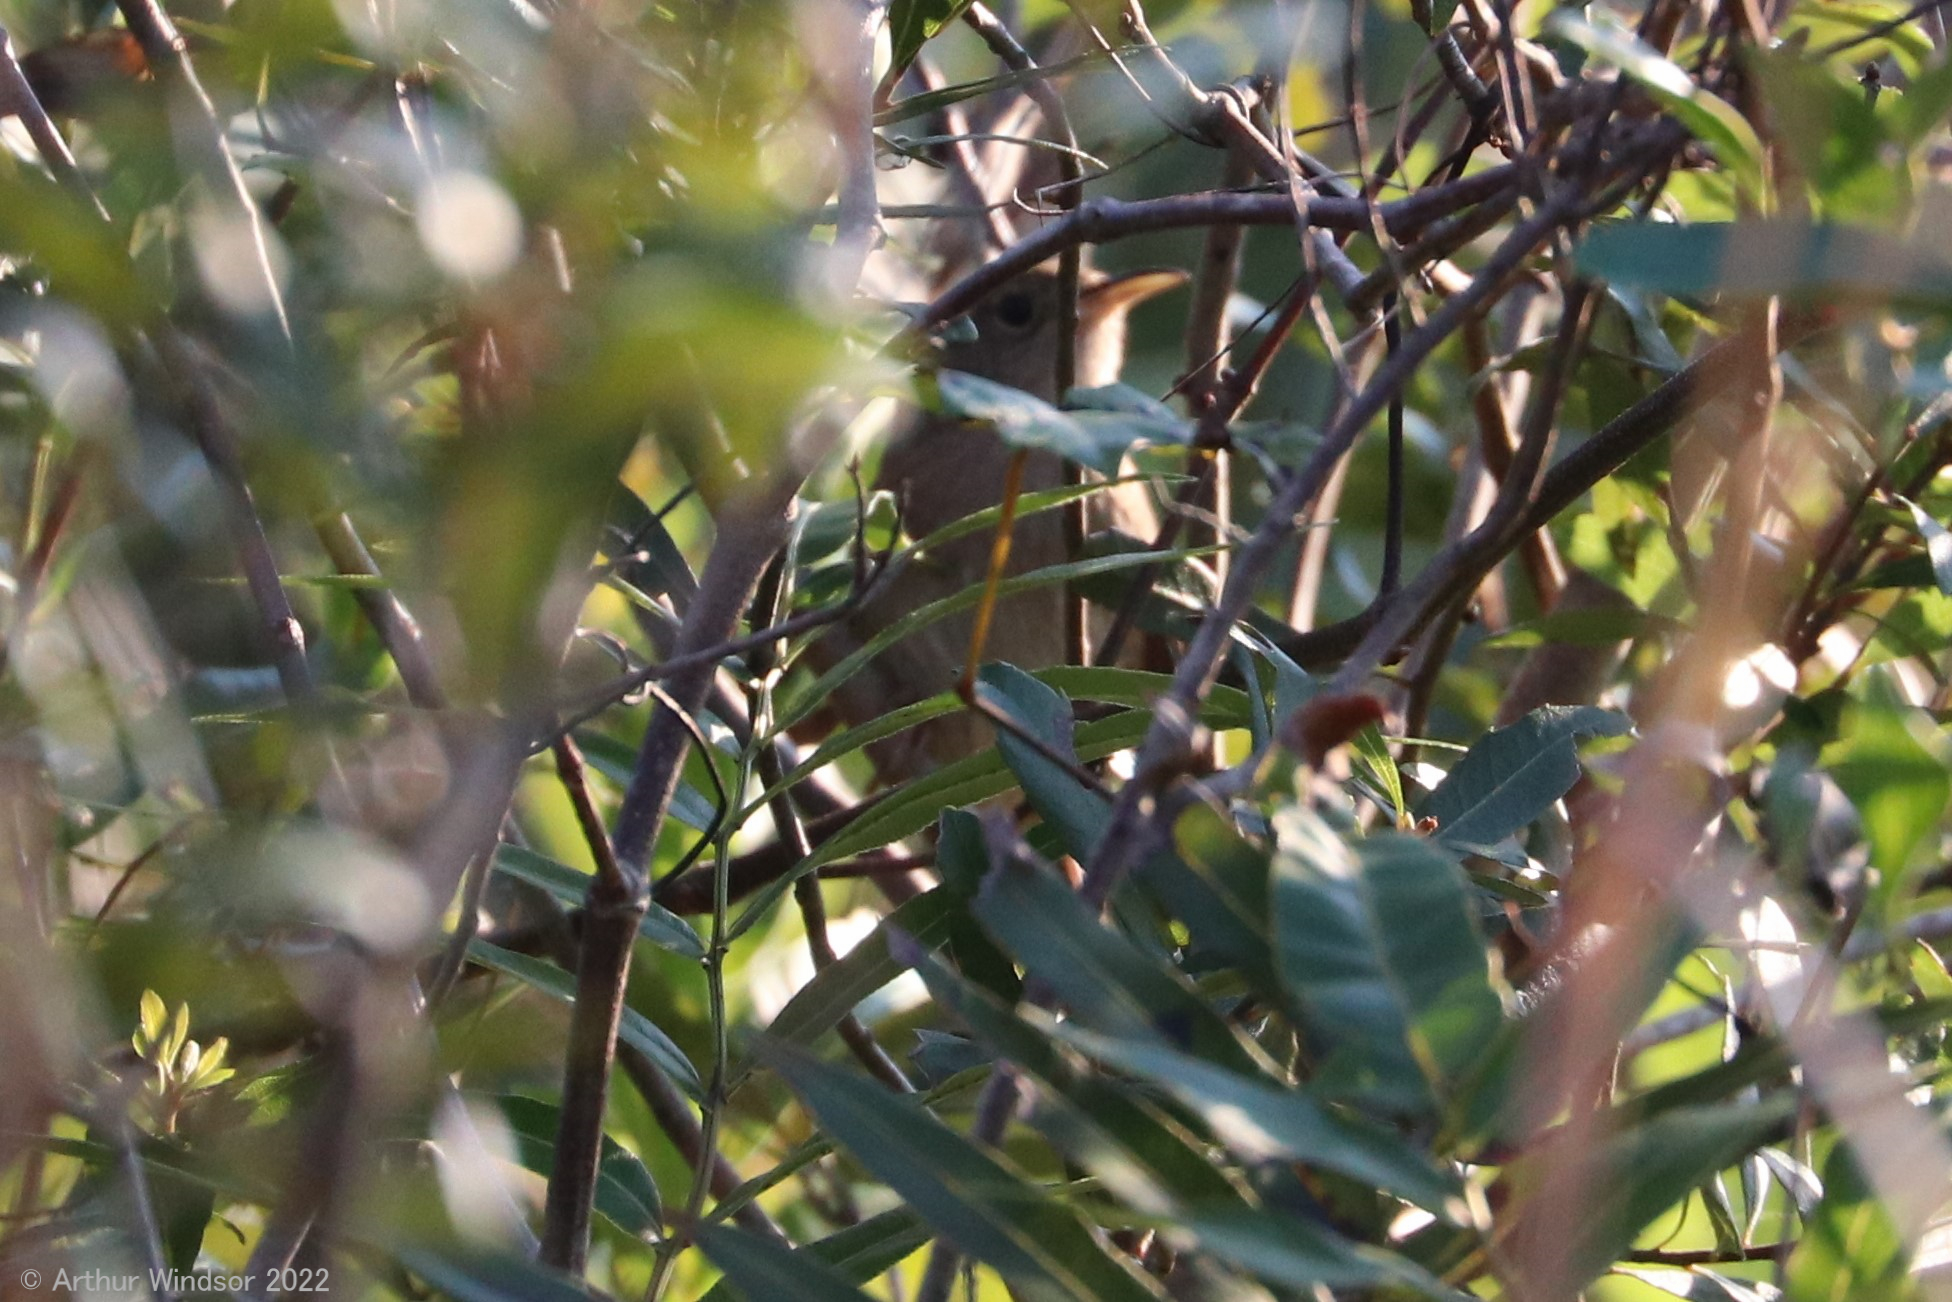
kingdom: Animalia
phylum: Chordata
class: Aves
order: Passeriformes
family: Troglodytidae
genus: Troglodytes
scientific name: Troglodytes aedon
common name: House wren
